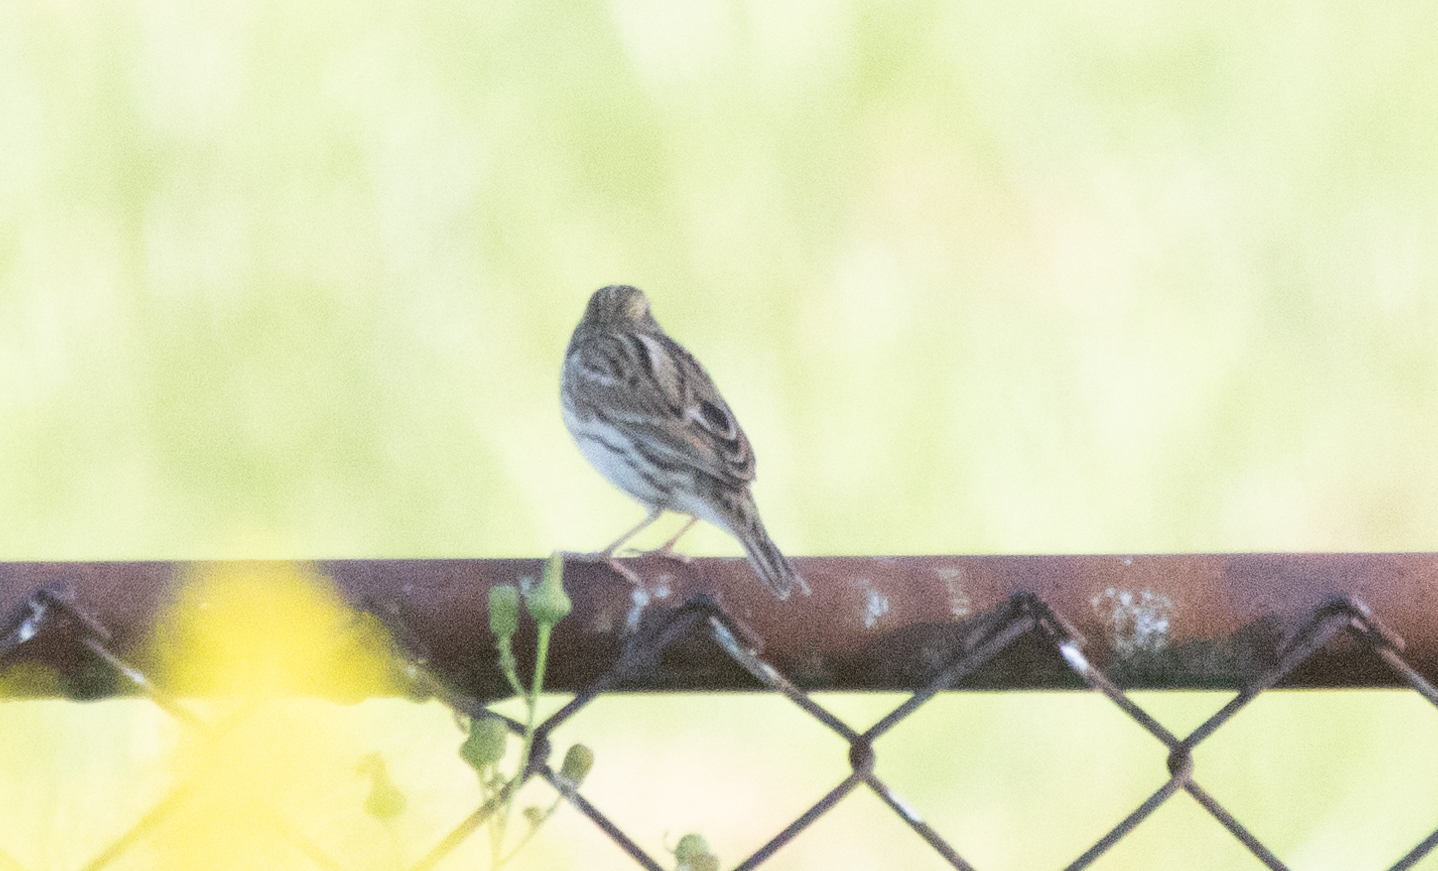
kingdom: Animalia
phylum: Chordata
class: Aves
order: Passeriformes
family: Passerellidae
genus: Passerculus
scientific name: Passerculus sandwichensis
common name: Savannah sparrow
